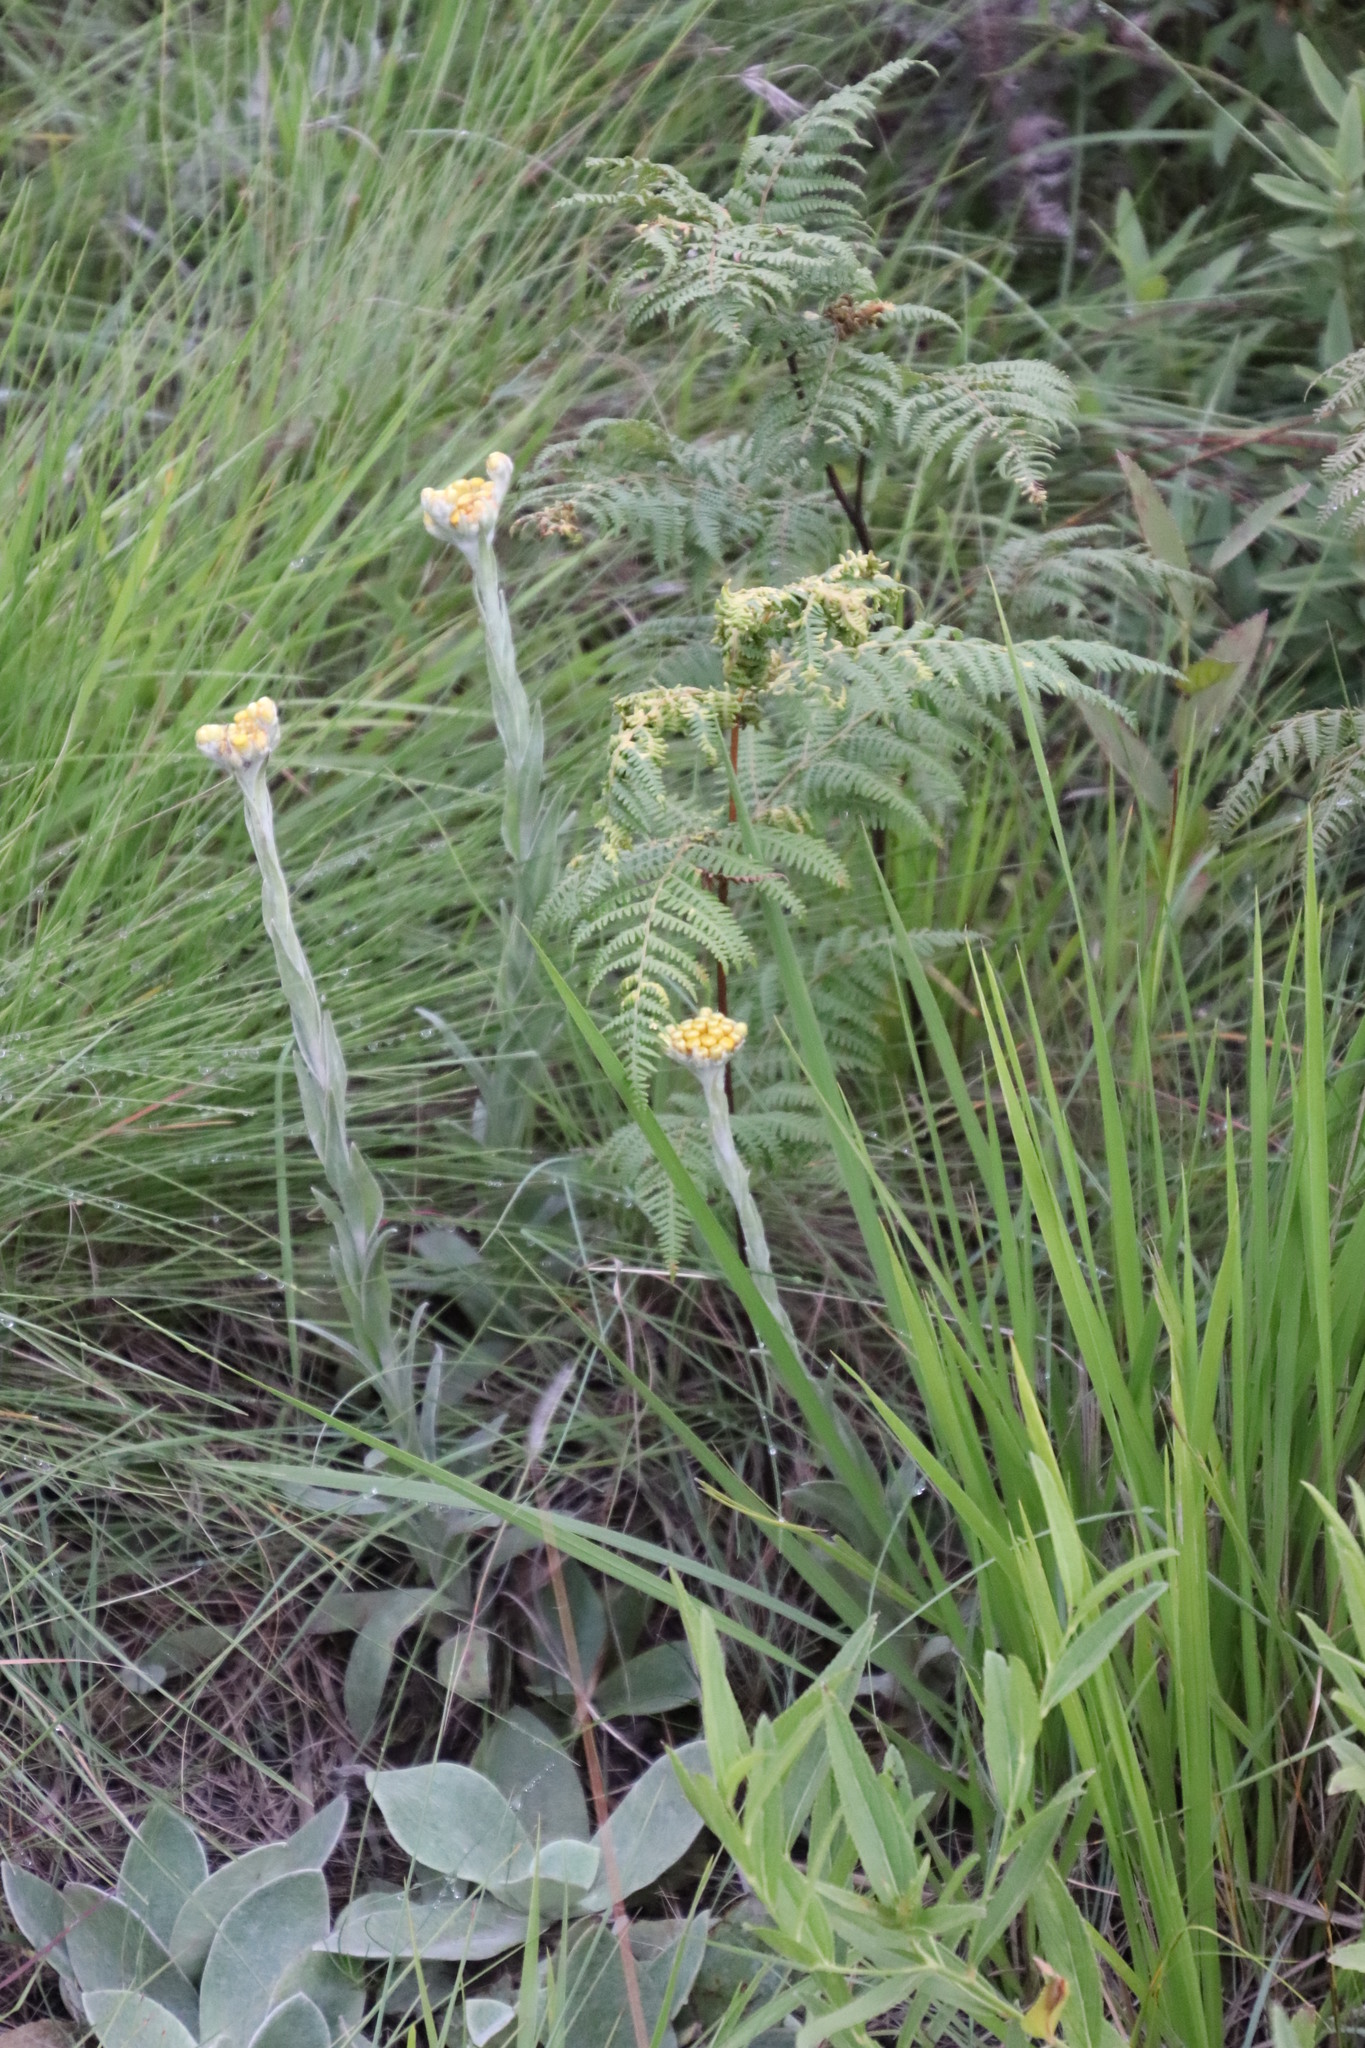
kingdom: Plantae
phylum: Tracheophyta
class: Magnoliopsida
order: Asterales
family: Asteraceae
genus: Helichrysum
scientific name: Helichrysum glomeratum
